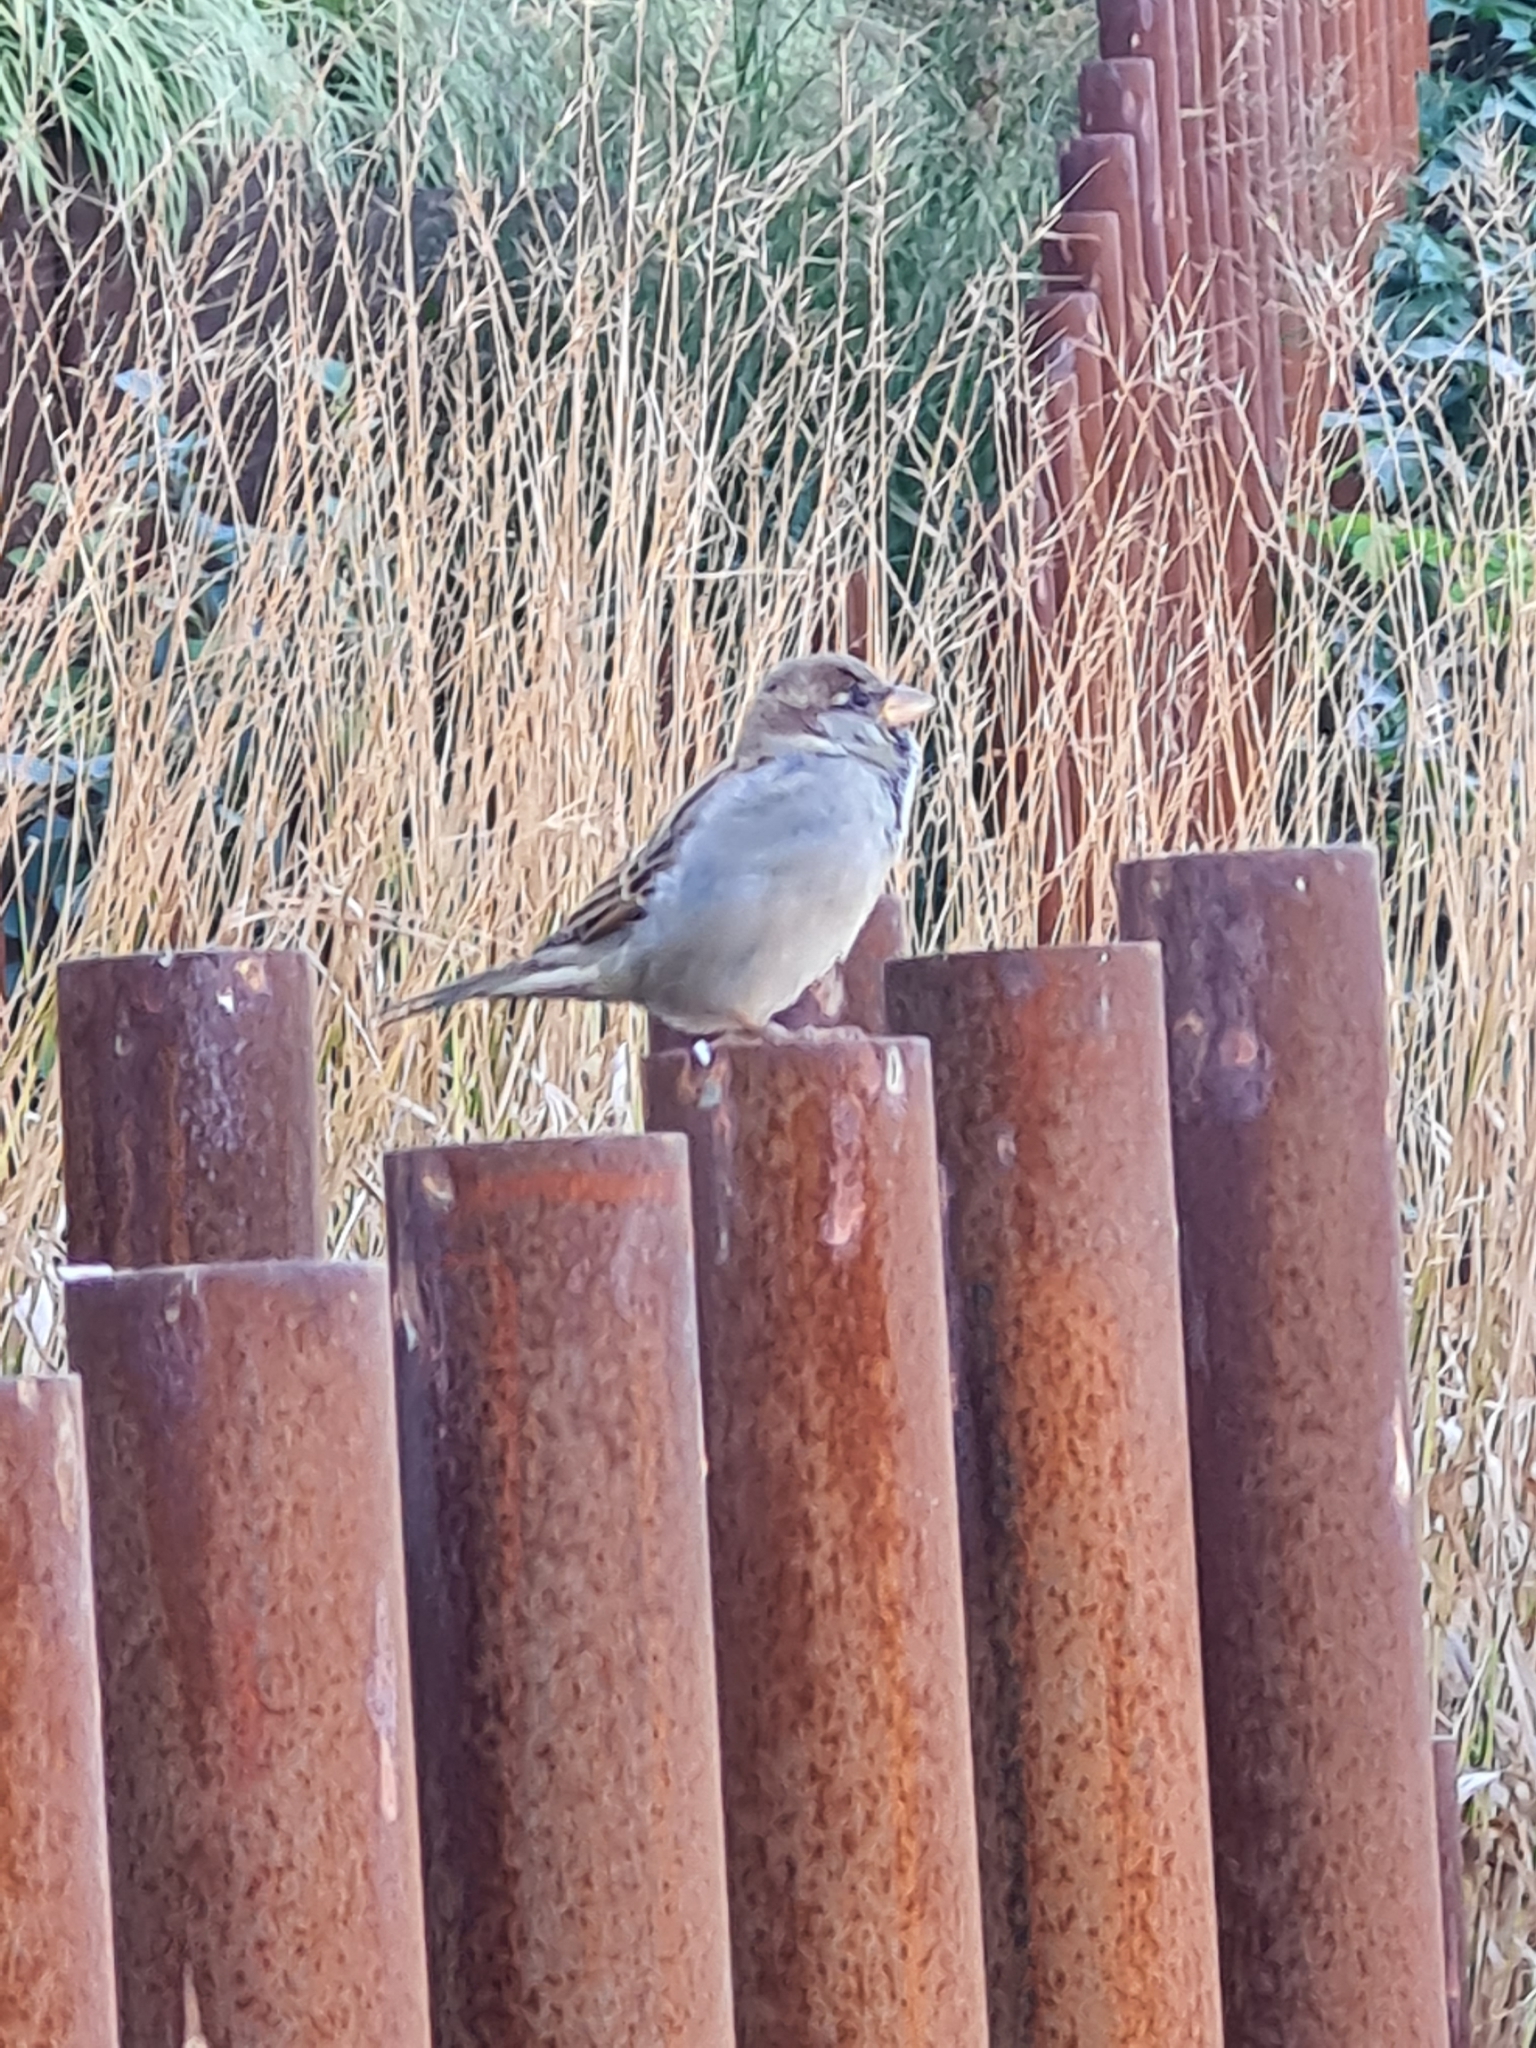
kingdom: Animalia
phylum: Chordata
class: Aves
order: Passeriformes
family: Passeridae
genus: Passer
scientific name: Passer domesticus
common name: House sparrow
